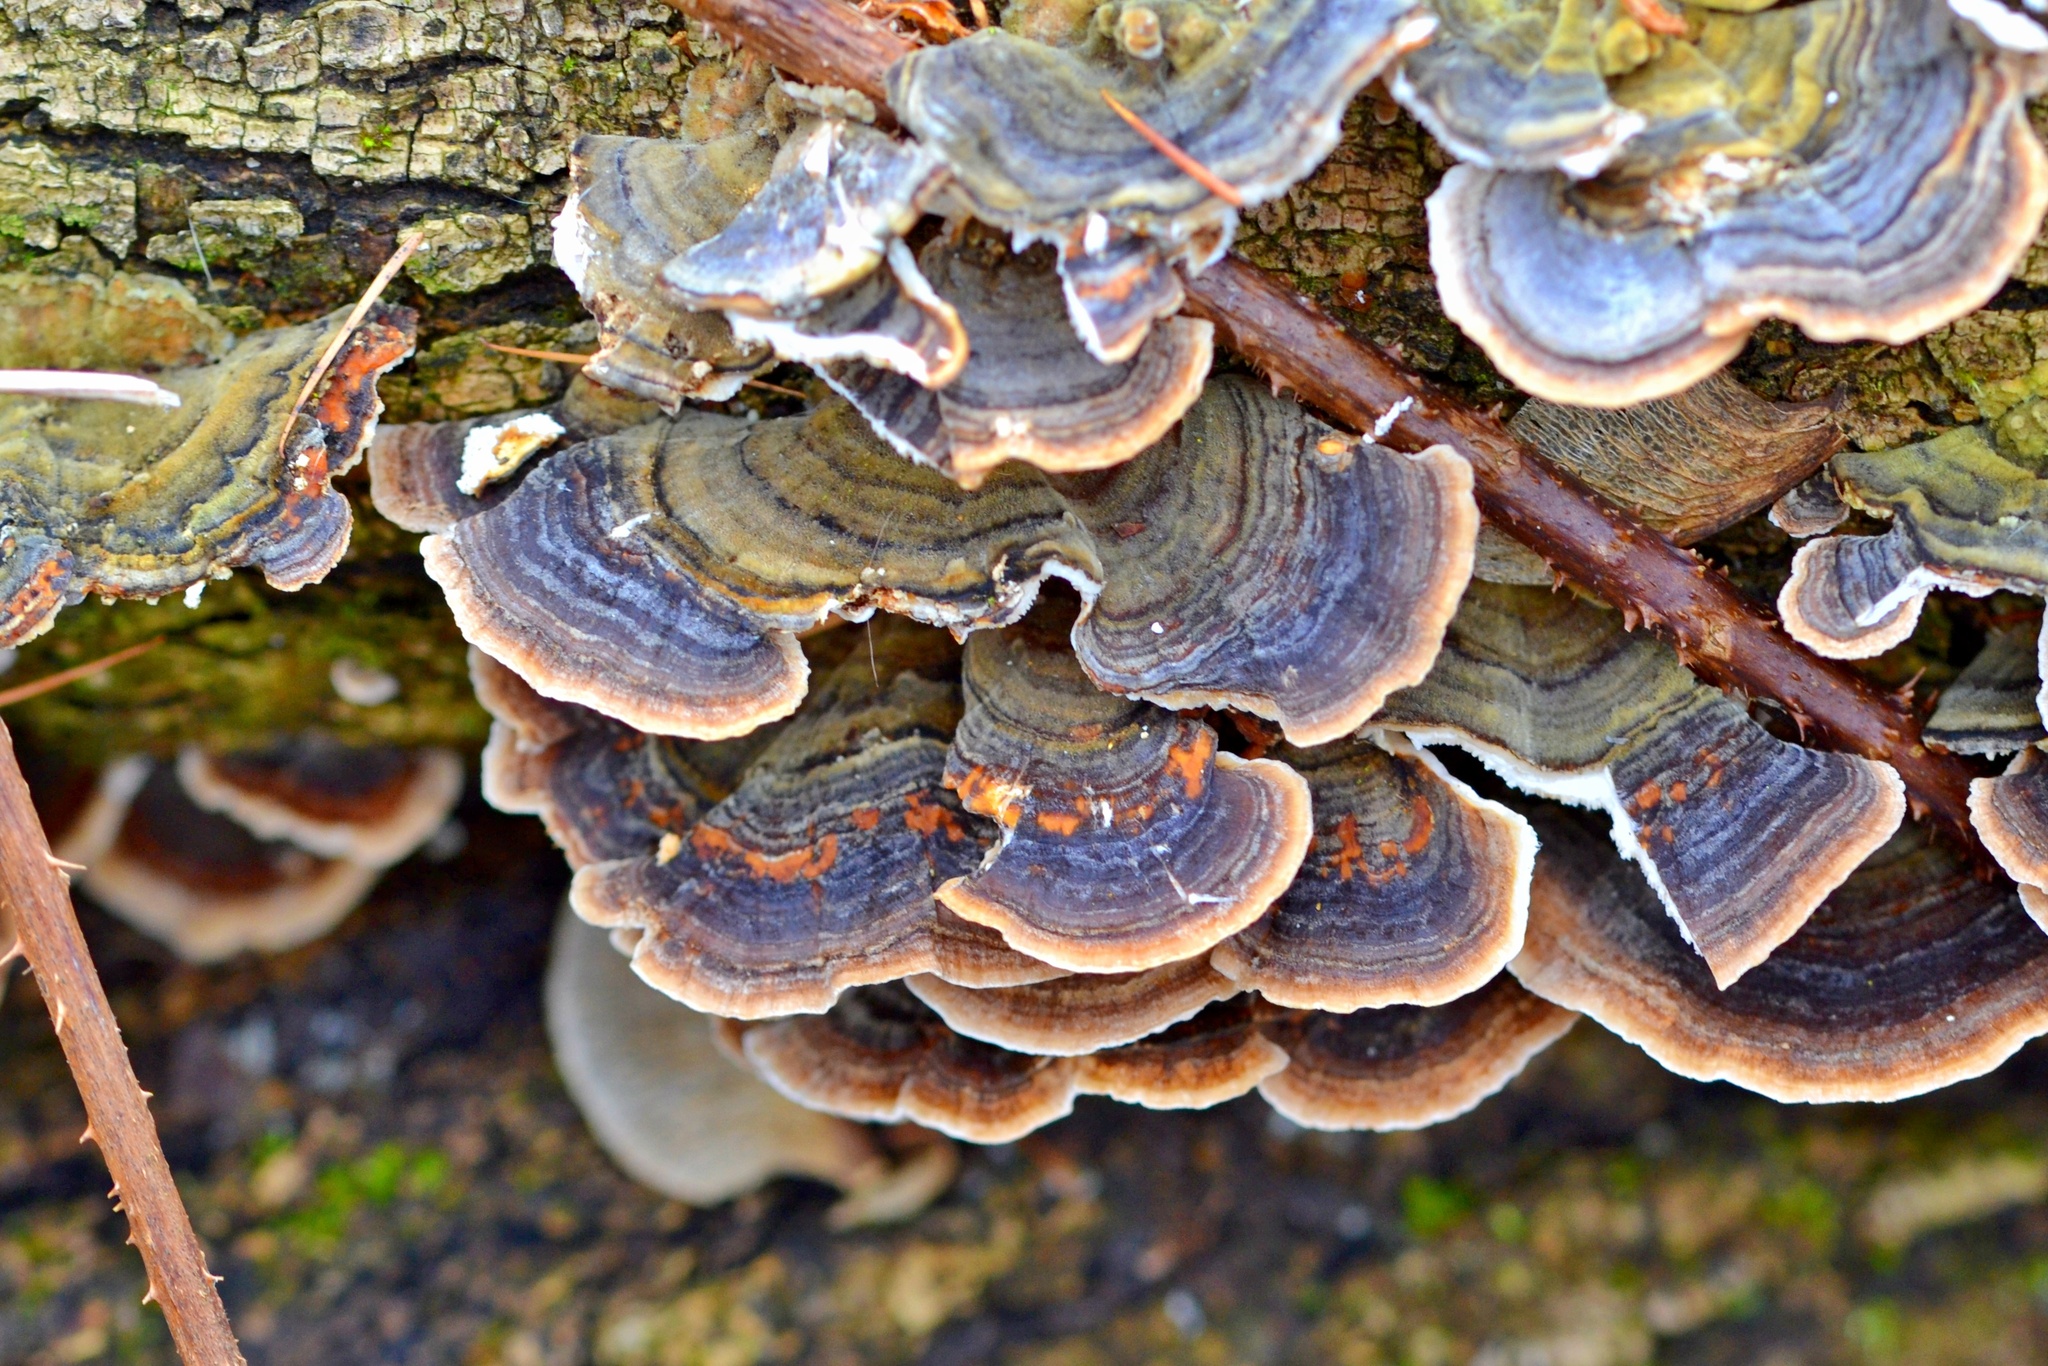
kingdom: Fungi
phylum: Basidiomycota
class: Agaricomycetes
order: Polyporales
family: Polyporaceae
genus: Trametes
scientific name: Trametes versicolor
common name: Turkeytail
